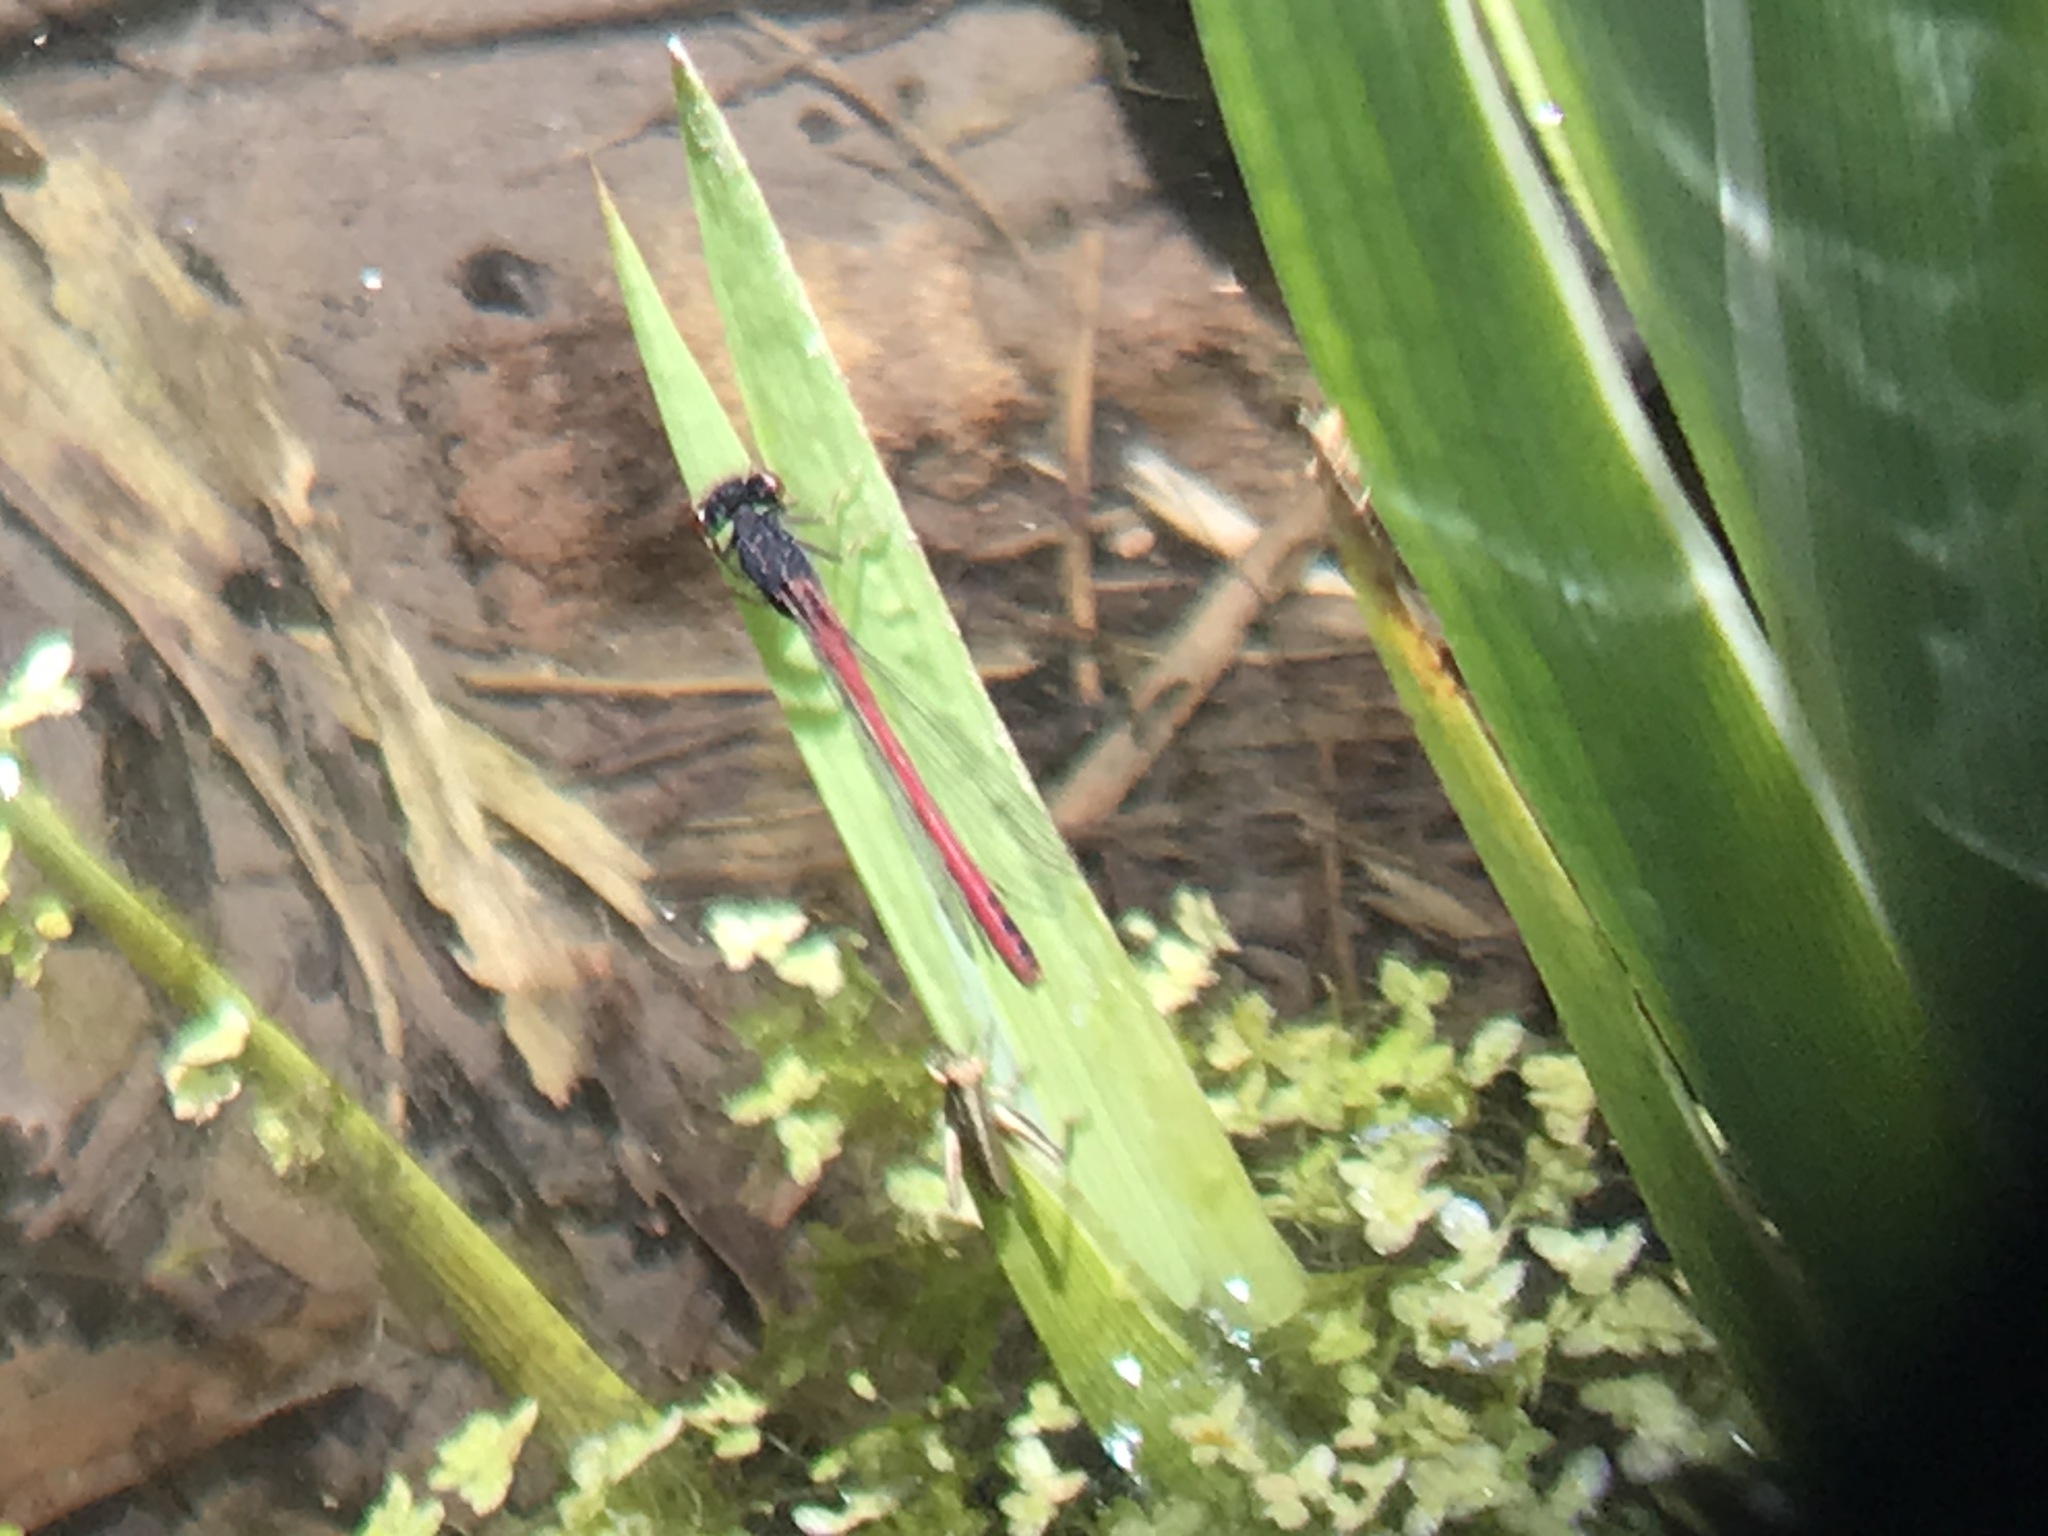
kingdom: Animalia
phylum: Arthropoda
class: Insecta
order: Odonata
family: Coenagrionidae
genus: Amphiagrion
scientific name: Amphiagrion abbreviatum
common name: Western red damsel
